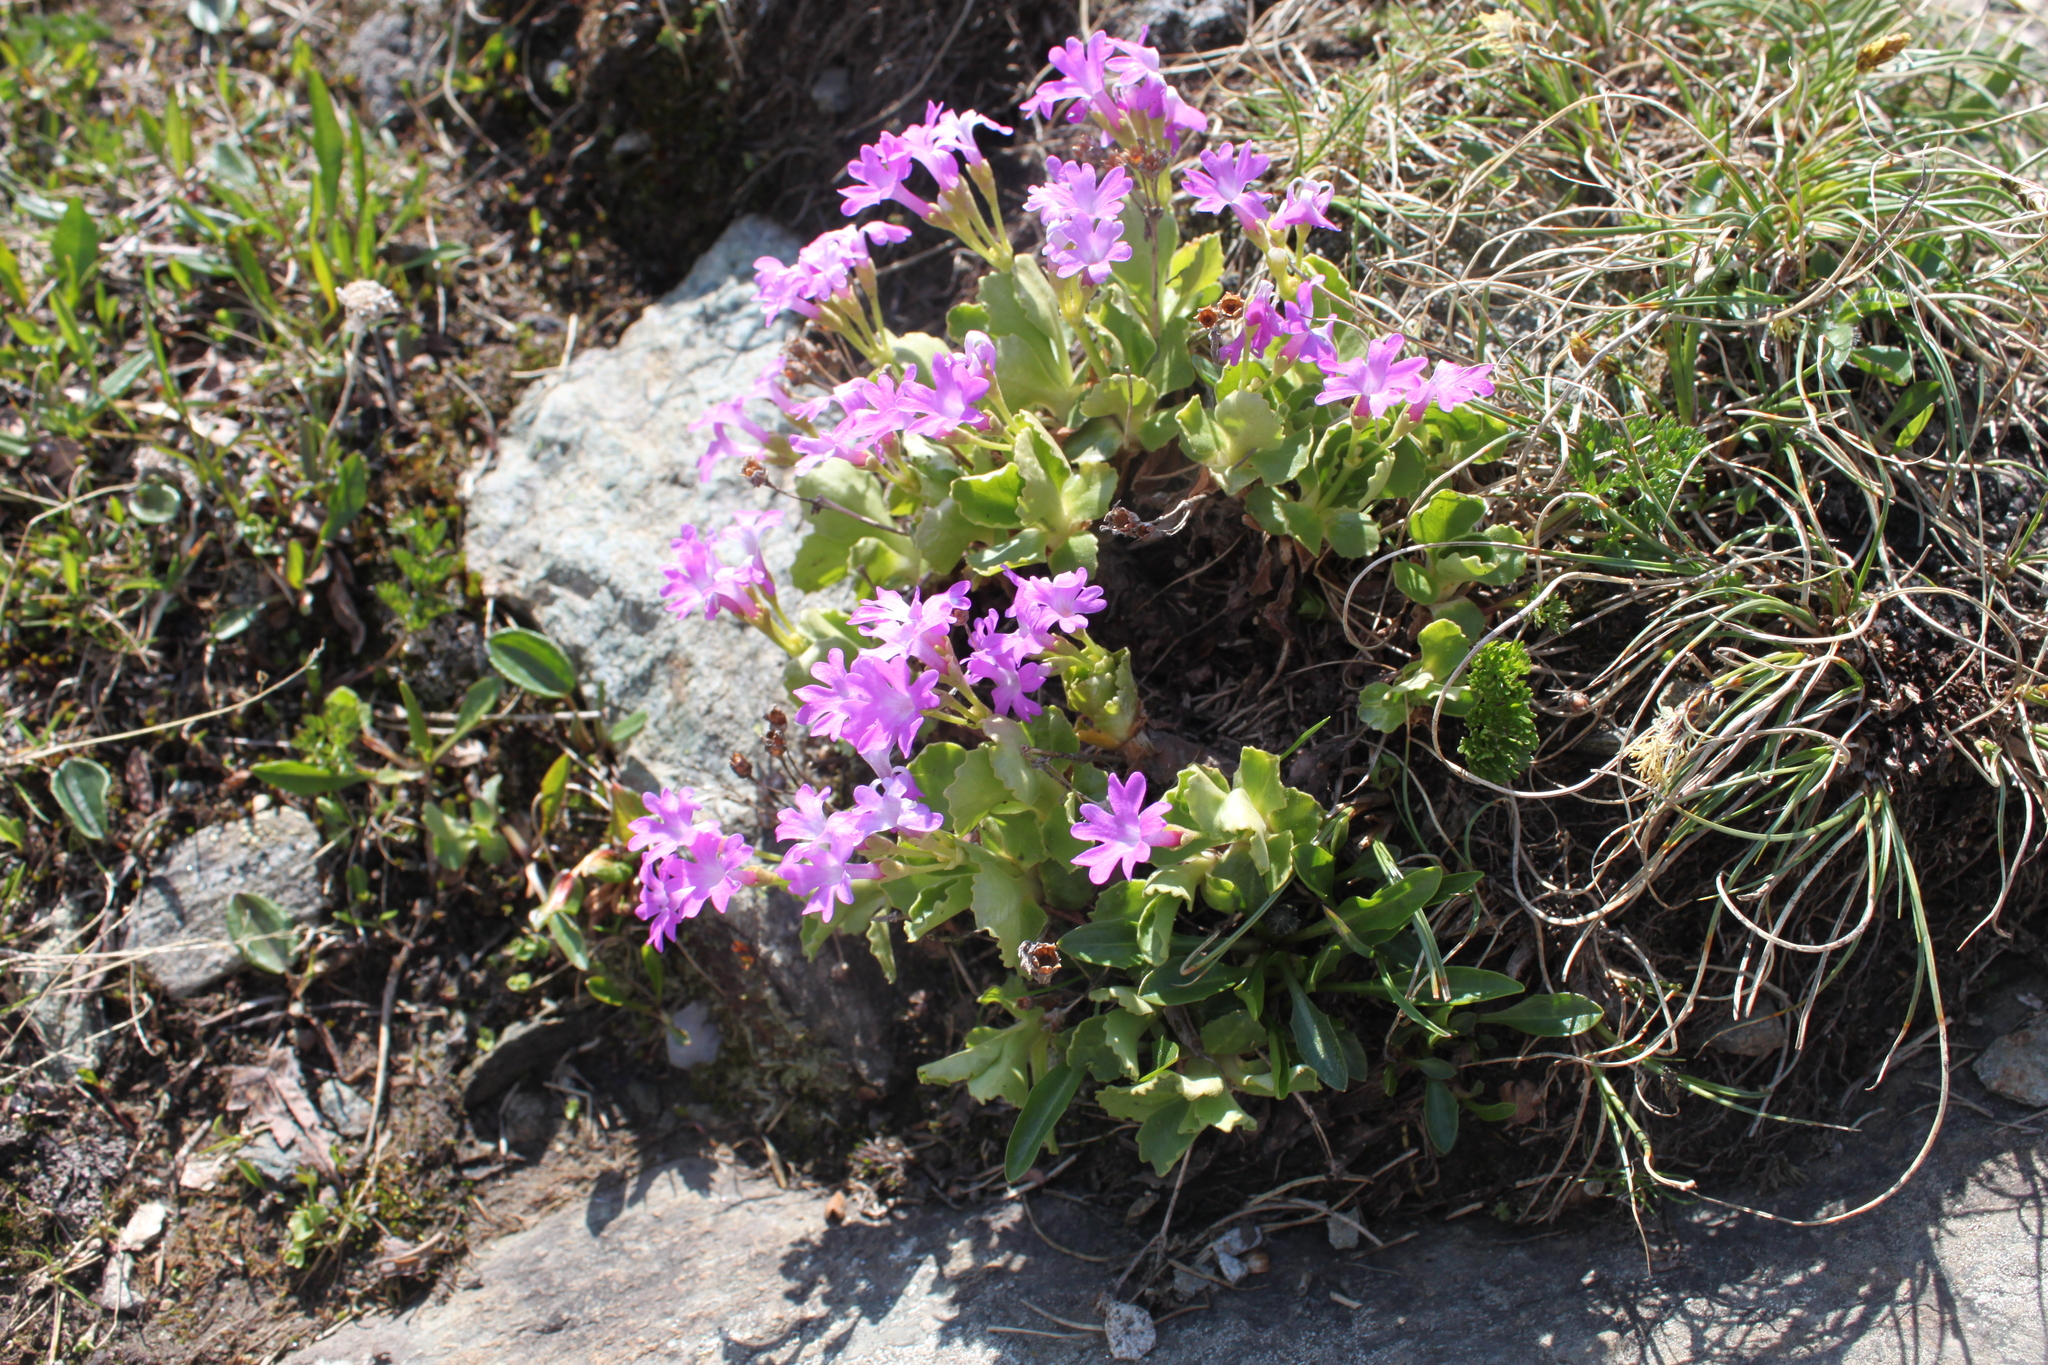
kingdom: Plantae
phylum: Tracheophyta
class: Magnoliopsida
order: Ericales
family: Primulaceae
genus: Primula
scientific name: Primula hirsuta
